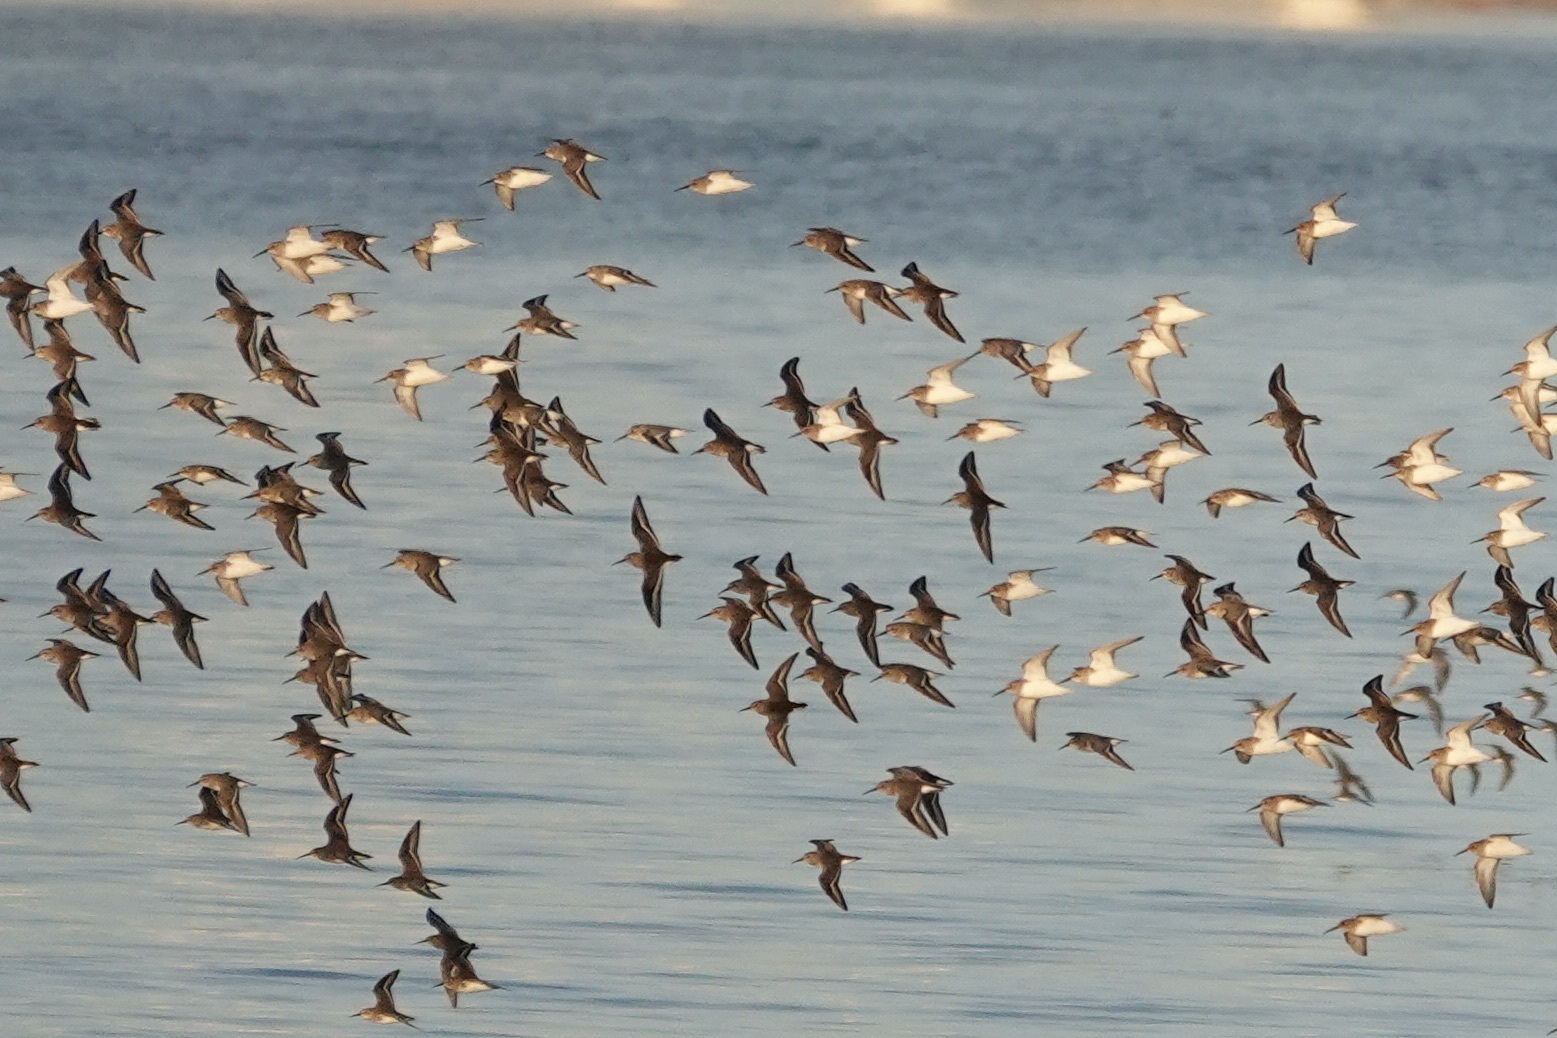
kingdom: Animalia
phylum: Chordata
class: Aves
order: Charadriiformes
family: Scolopacidae
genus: Calidris
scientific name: Calidris alpina
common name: Dunlin
